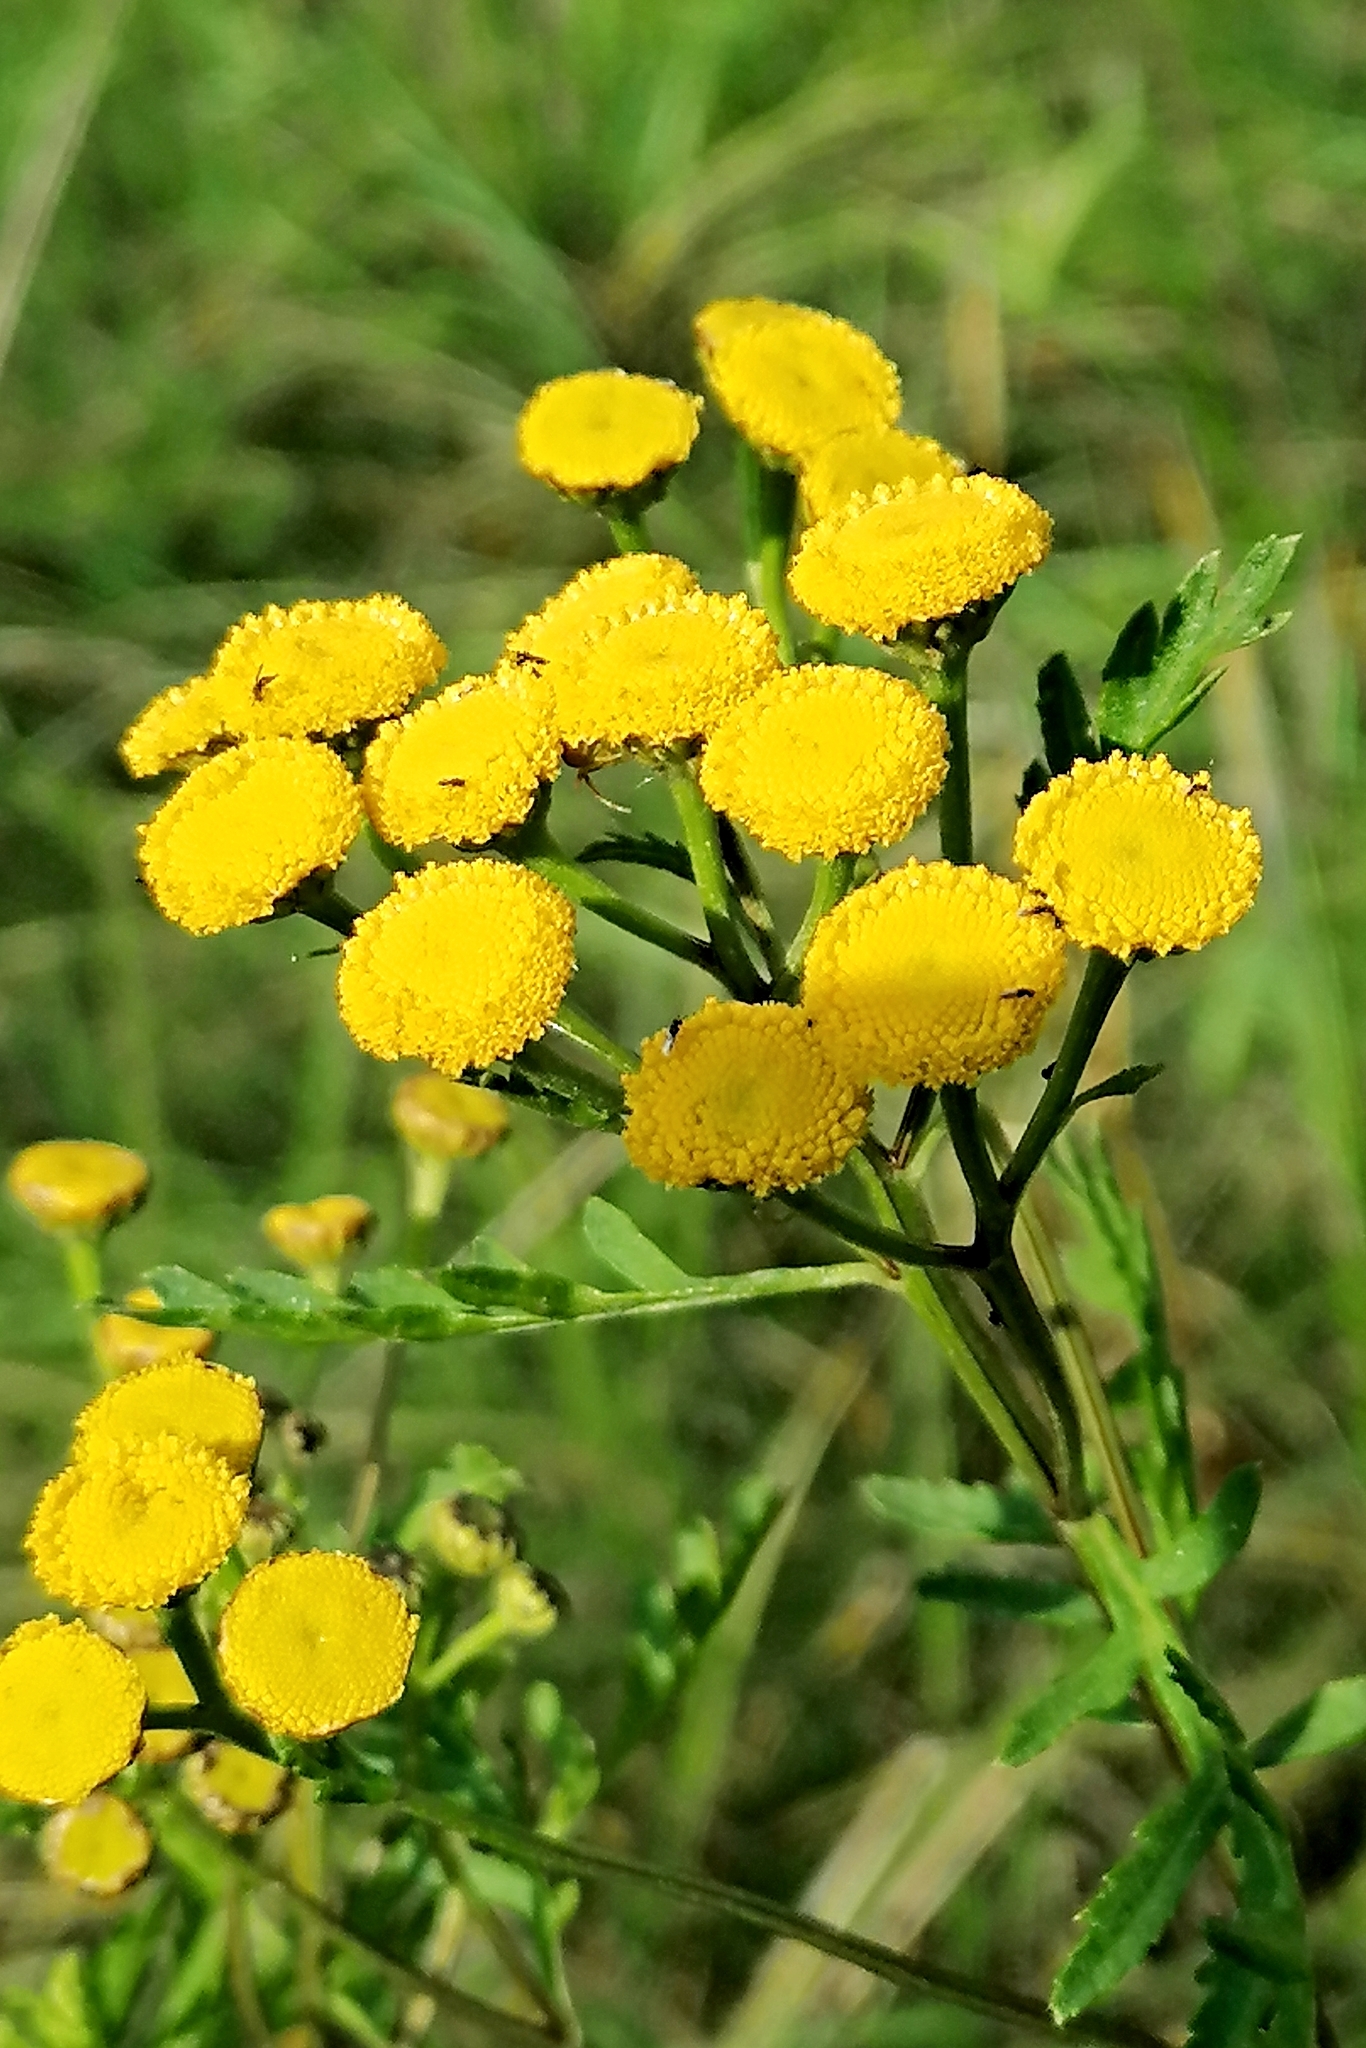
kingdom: Plantae
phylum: Tracheophyta
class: Magnoliopsida
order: Asterales
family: Asteraceae
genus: Tanacetum
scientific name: Tanacetum vulgare
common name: Common tansy
